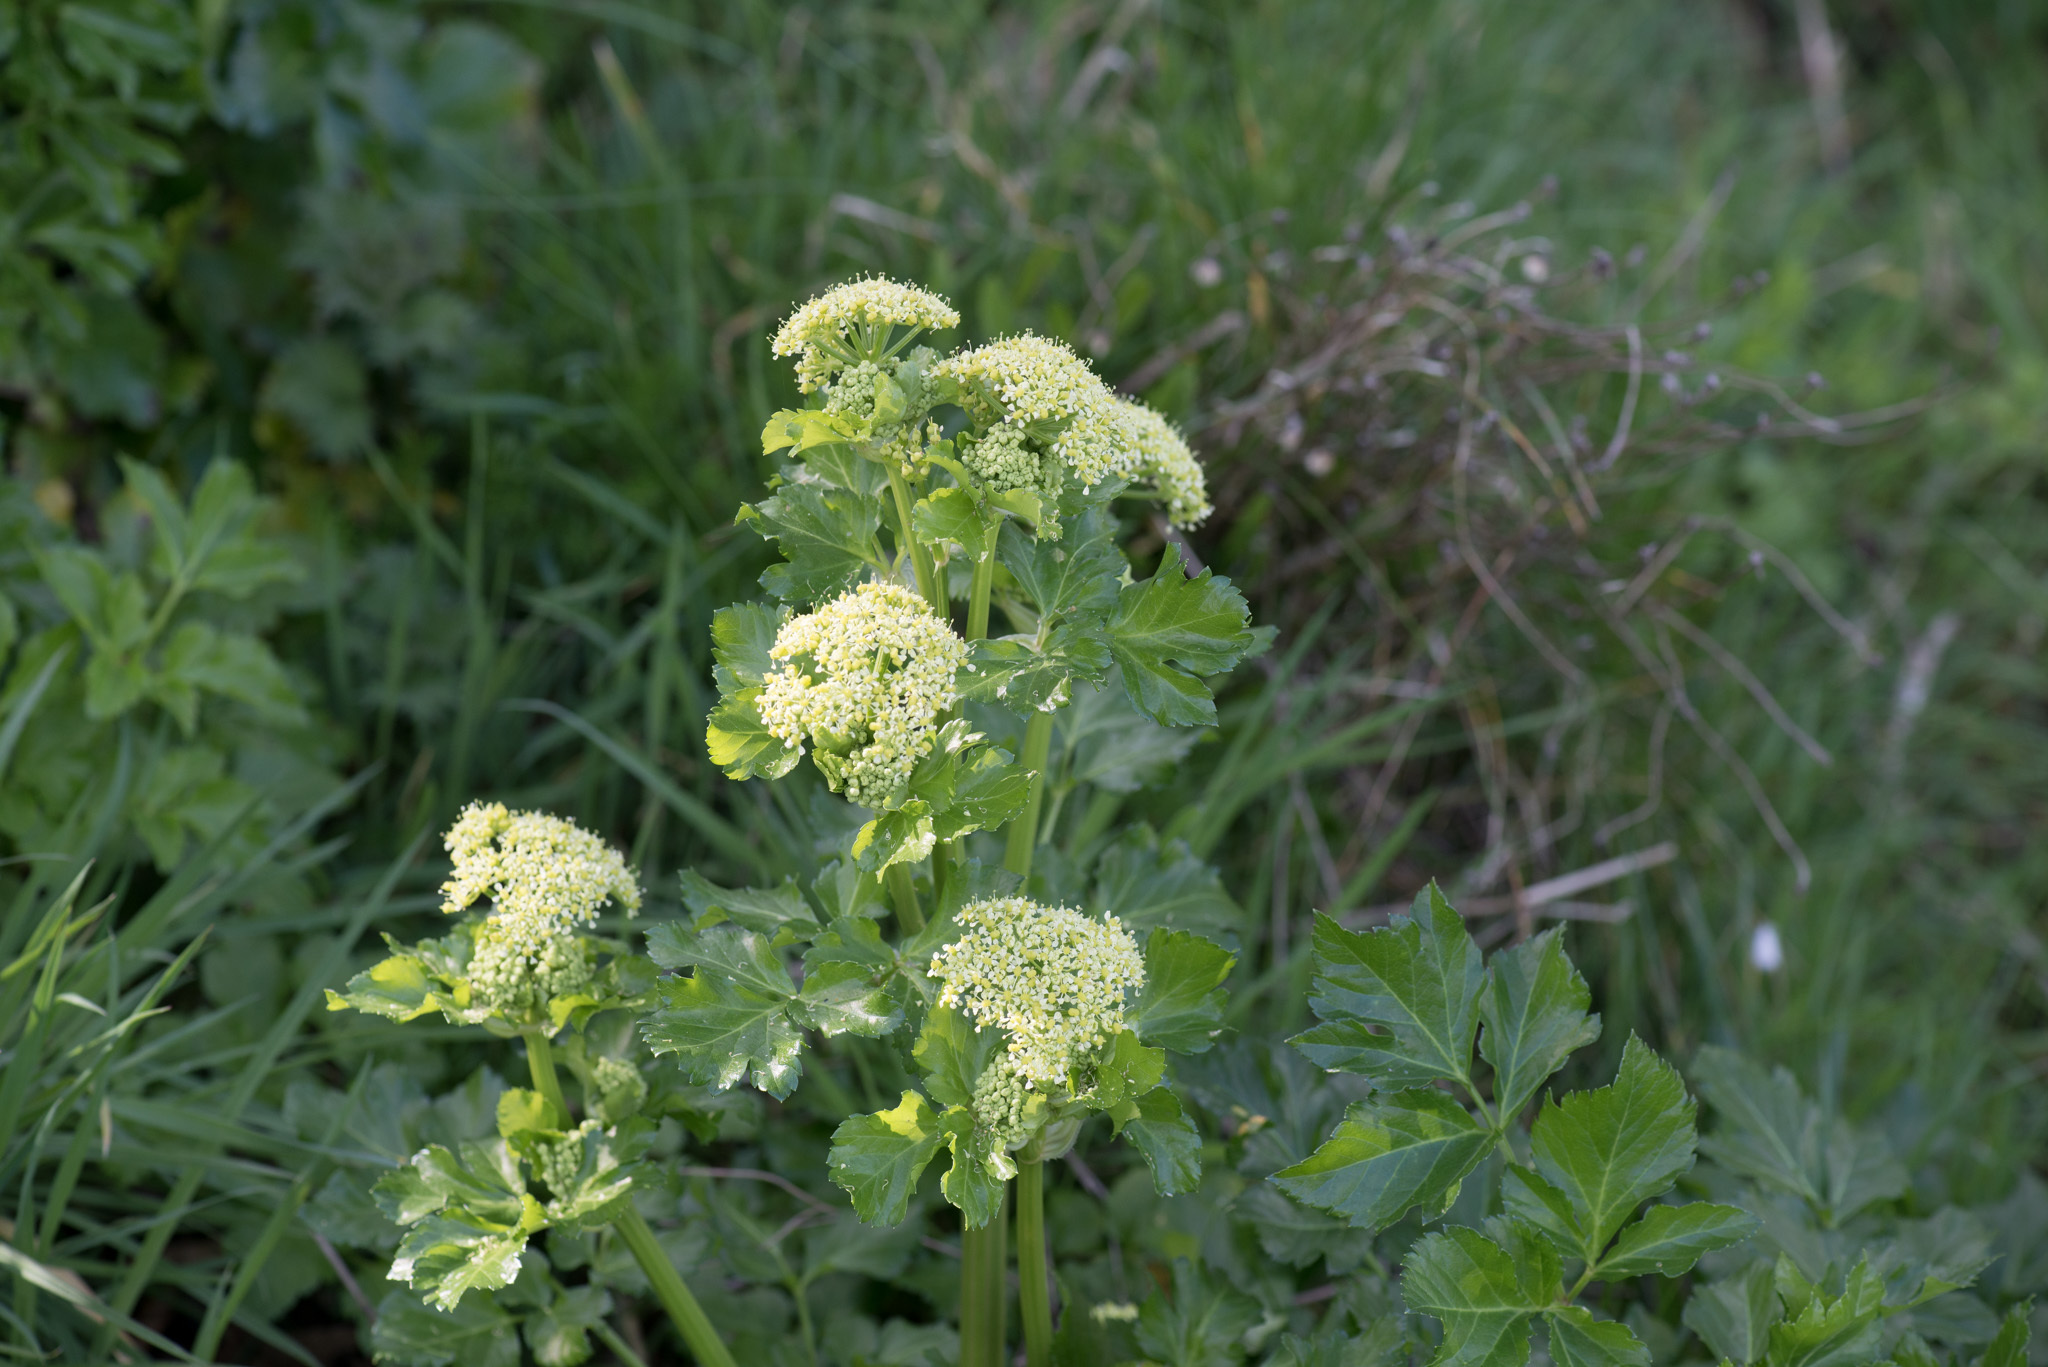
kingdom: Plantae
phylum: Tracheophyta
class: Magnoliopsida
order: Apiales
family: Apiaceae
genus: Smyrnium
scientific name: Smyrnium olusatrum
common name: Alexanders
